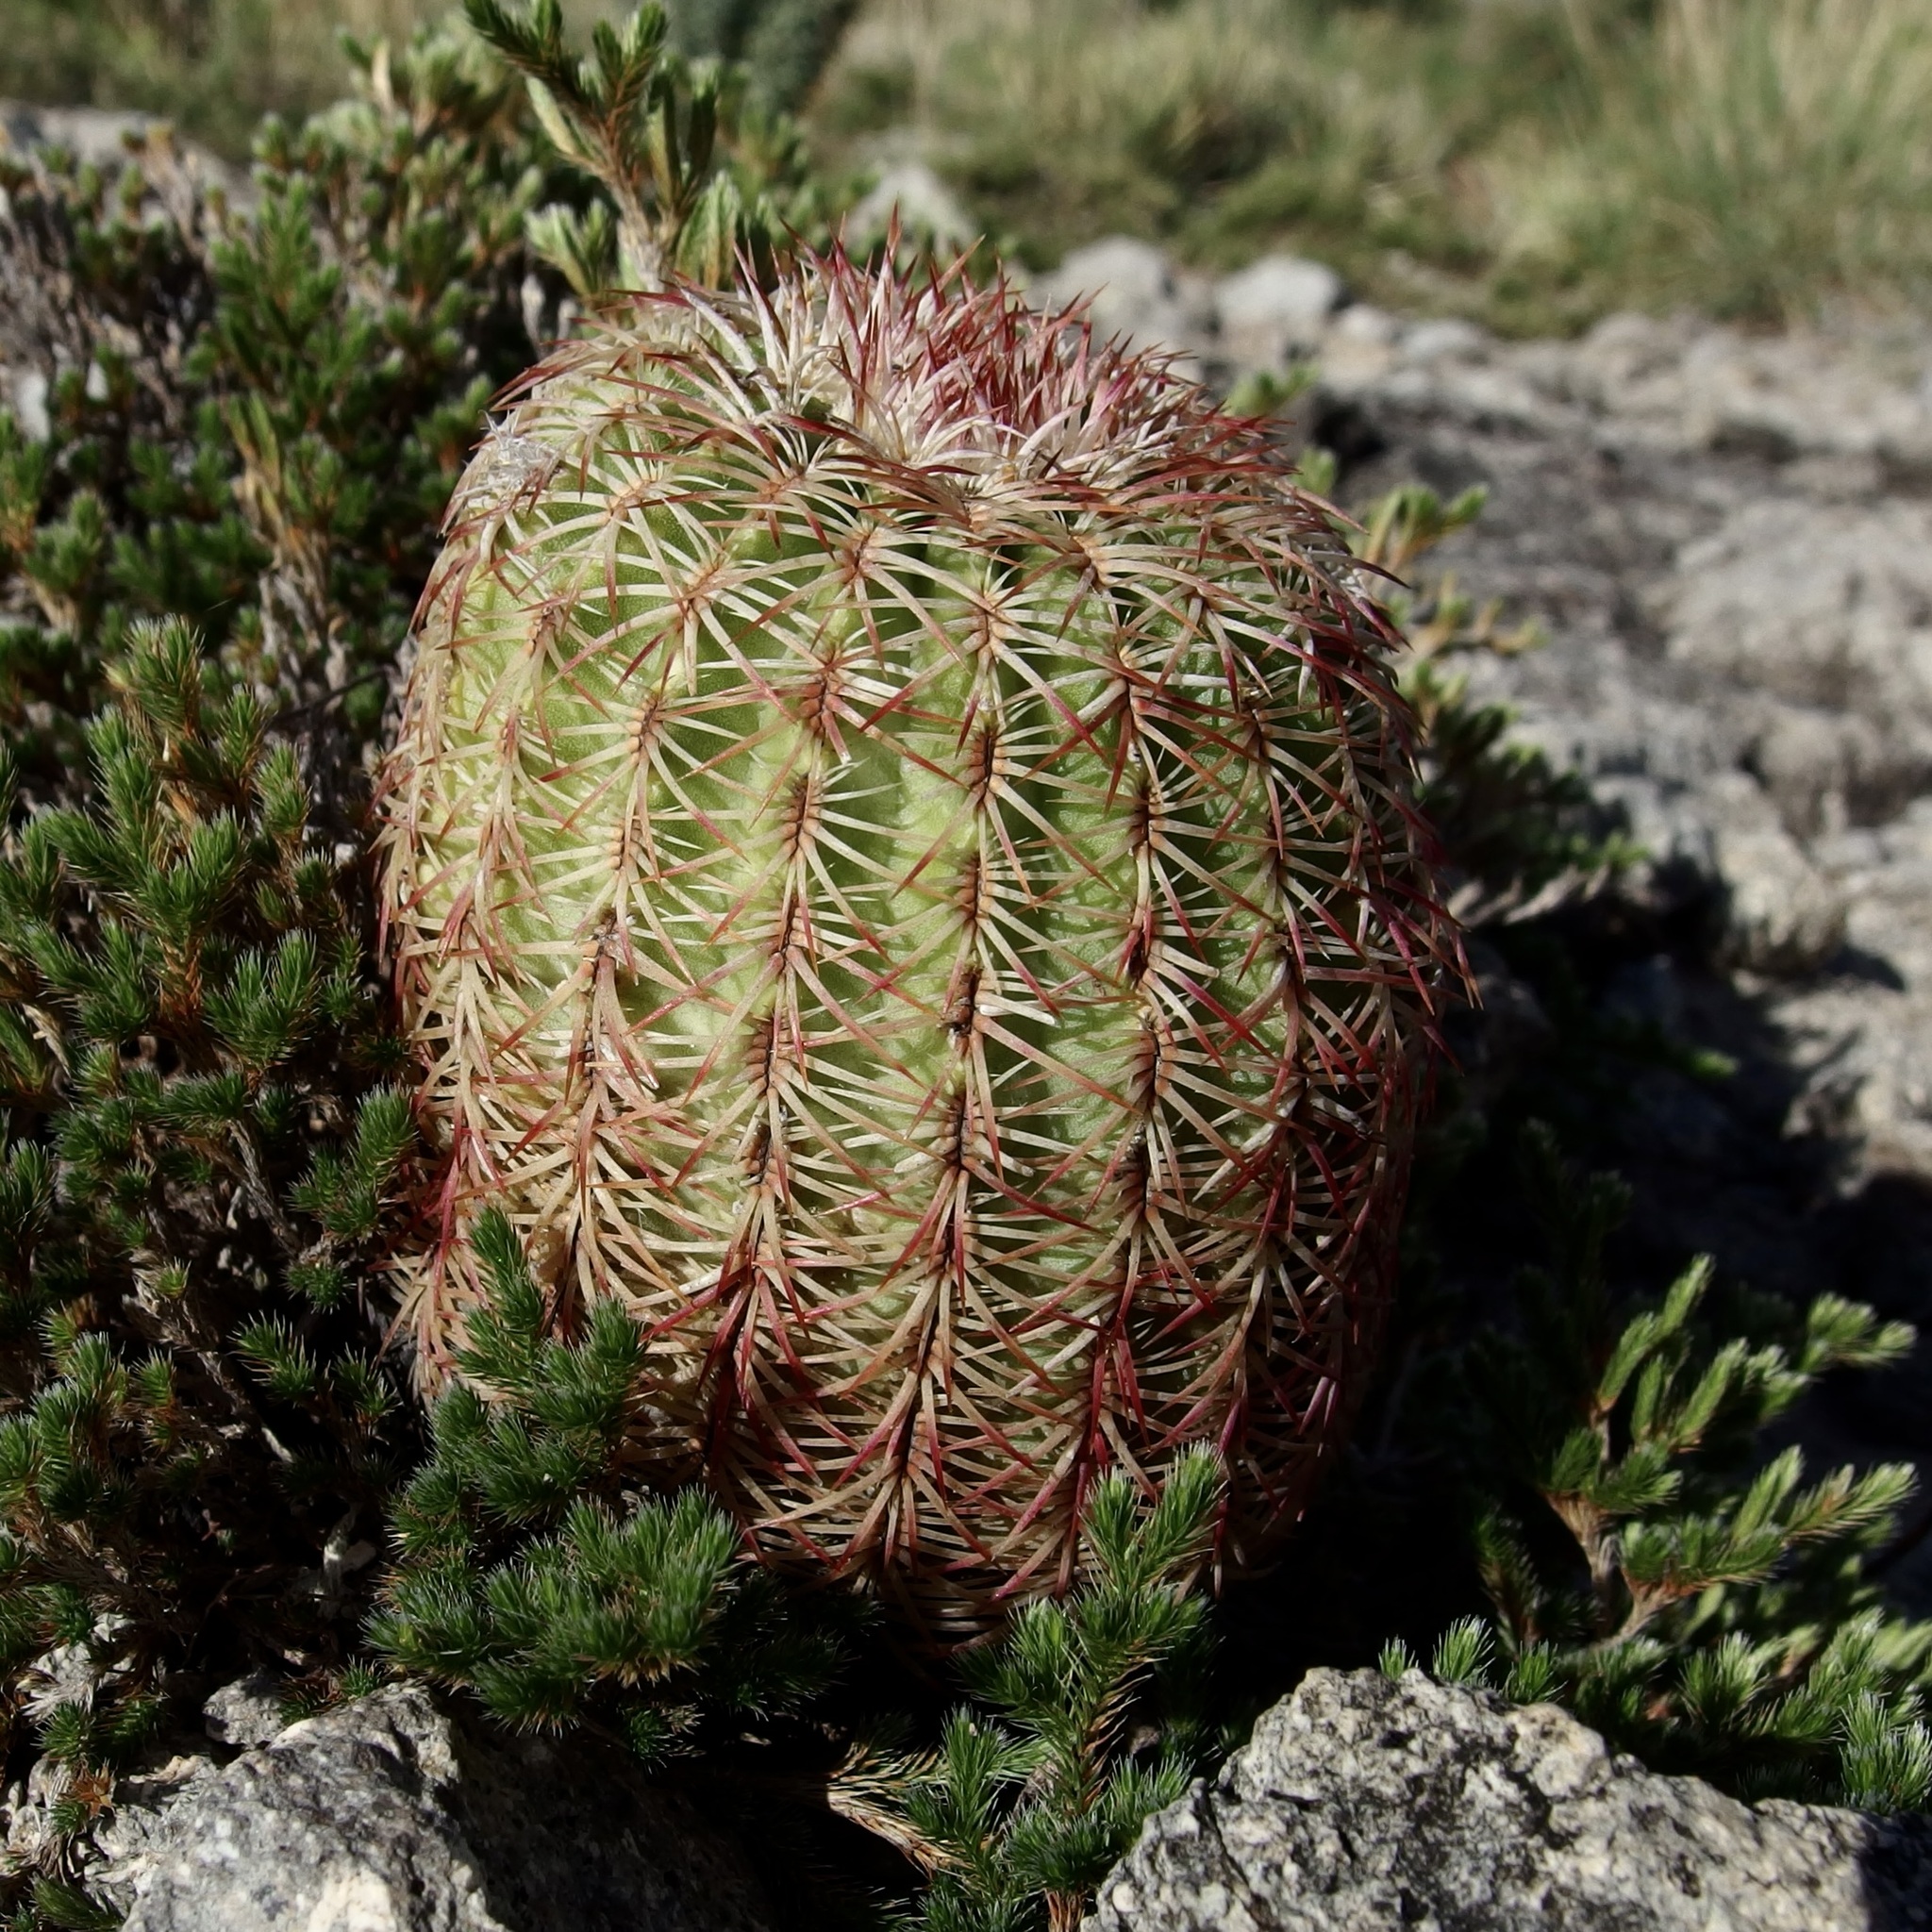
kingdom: Plantae
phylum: Tracheophyta
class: Magnoliopsida
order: Caryophyllales
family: Cactaceae
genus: Echinocereus
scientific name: Echinocereus rigidissimus
